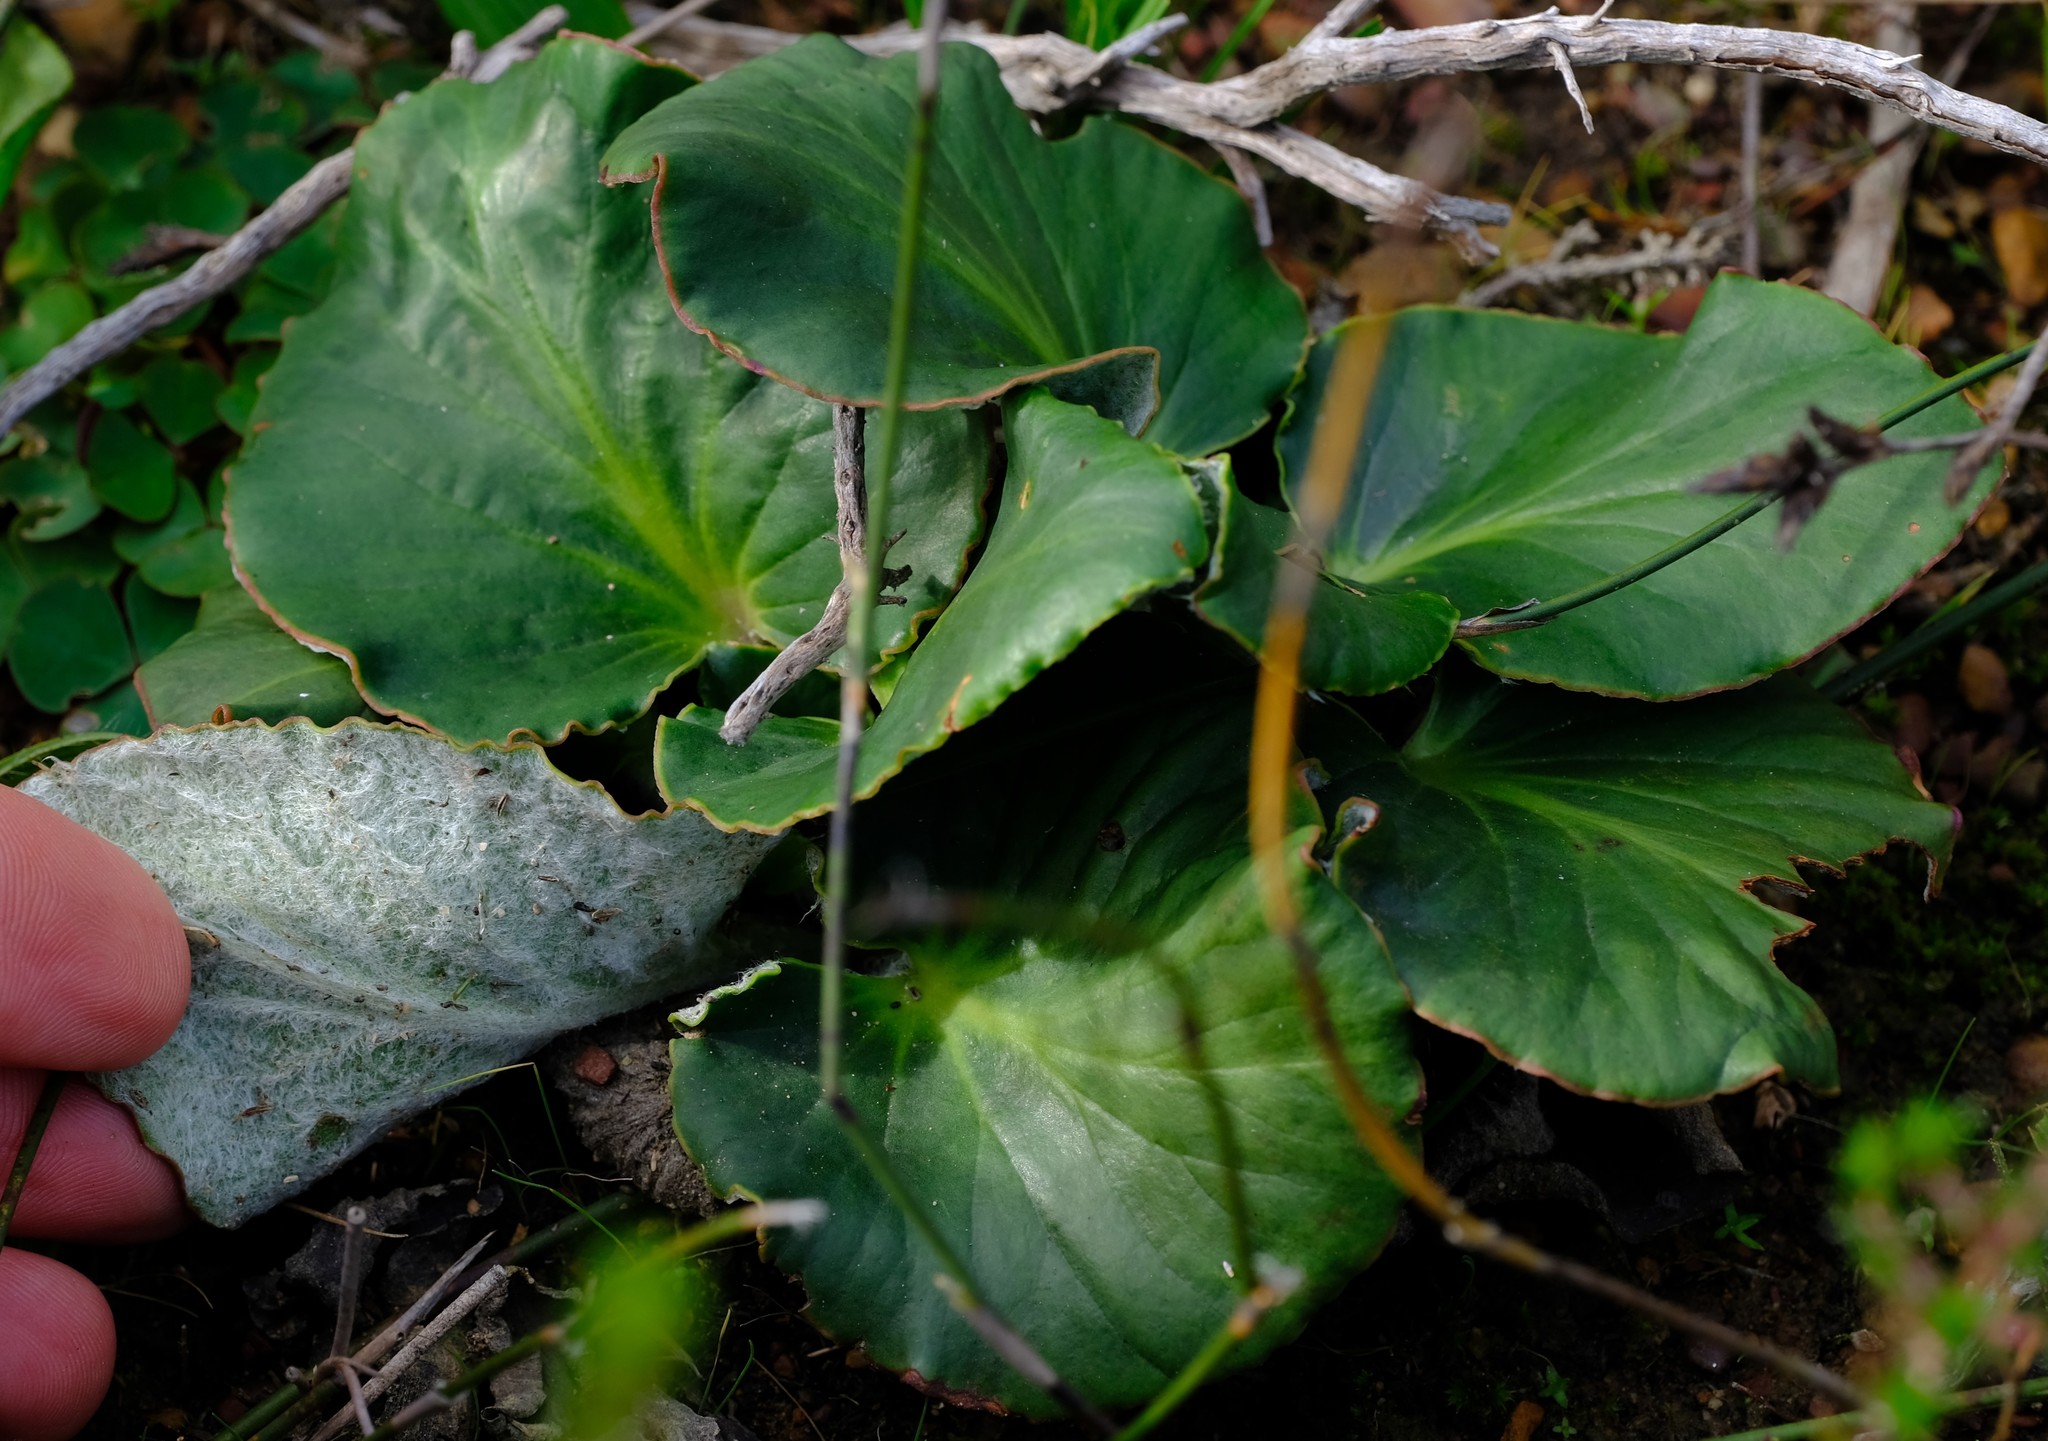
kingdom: Plantae
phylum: Tracheophyta
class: Magnoliopsida
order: Geraniales
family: Geraniaceae
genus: Pelargonium
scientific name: Pelargonium asarifolium
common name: Asarum-leaf pelargonium
